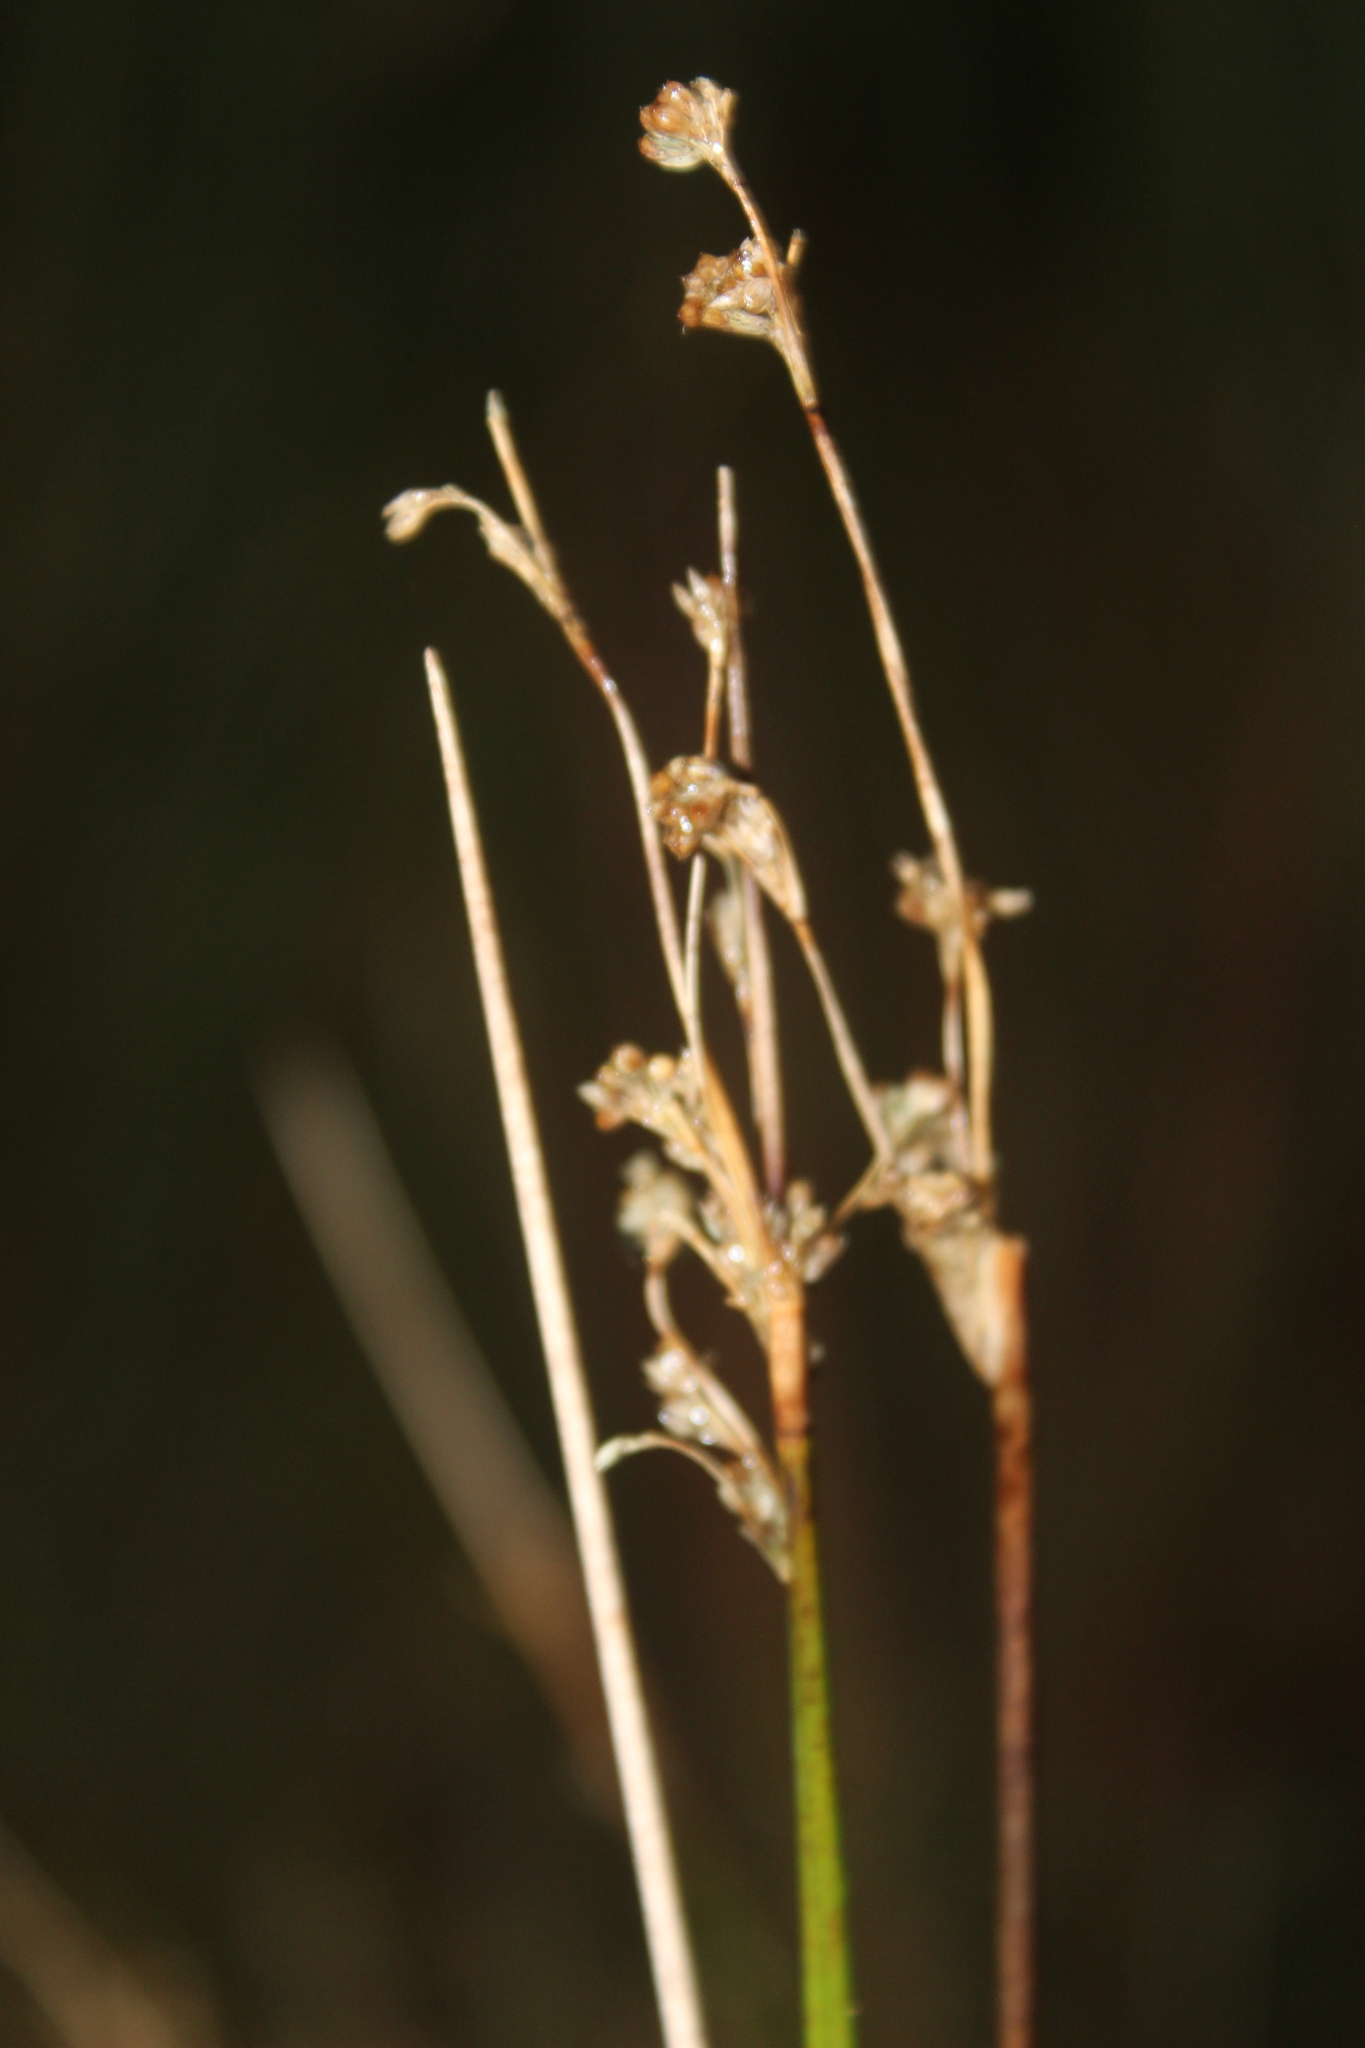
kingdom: Plantae
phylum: Tracheophyta
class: Liliopsida
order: Poales
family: Juncaceae
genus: Juncus
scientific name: Juncus edgariae
